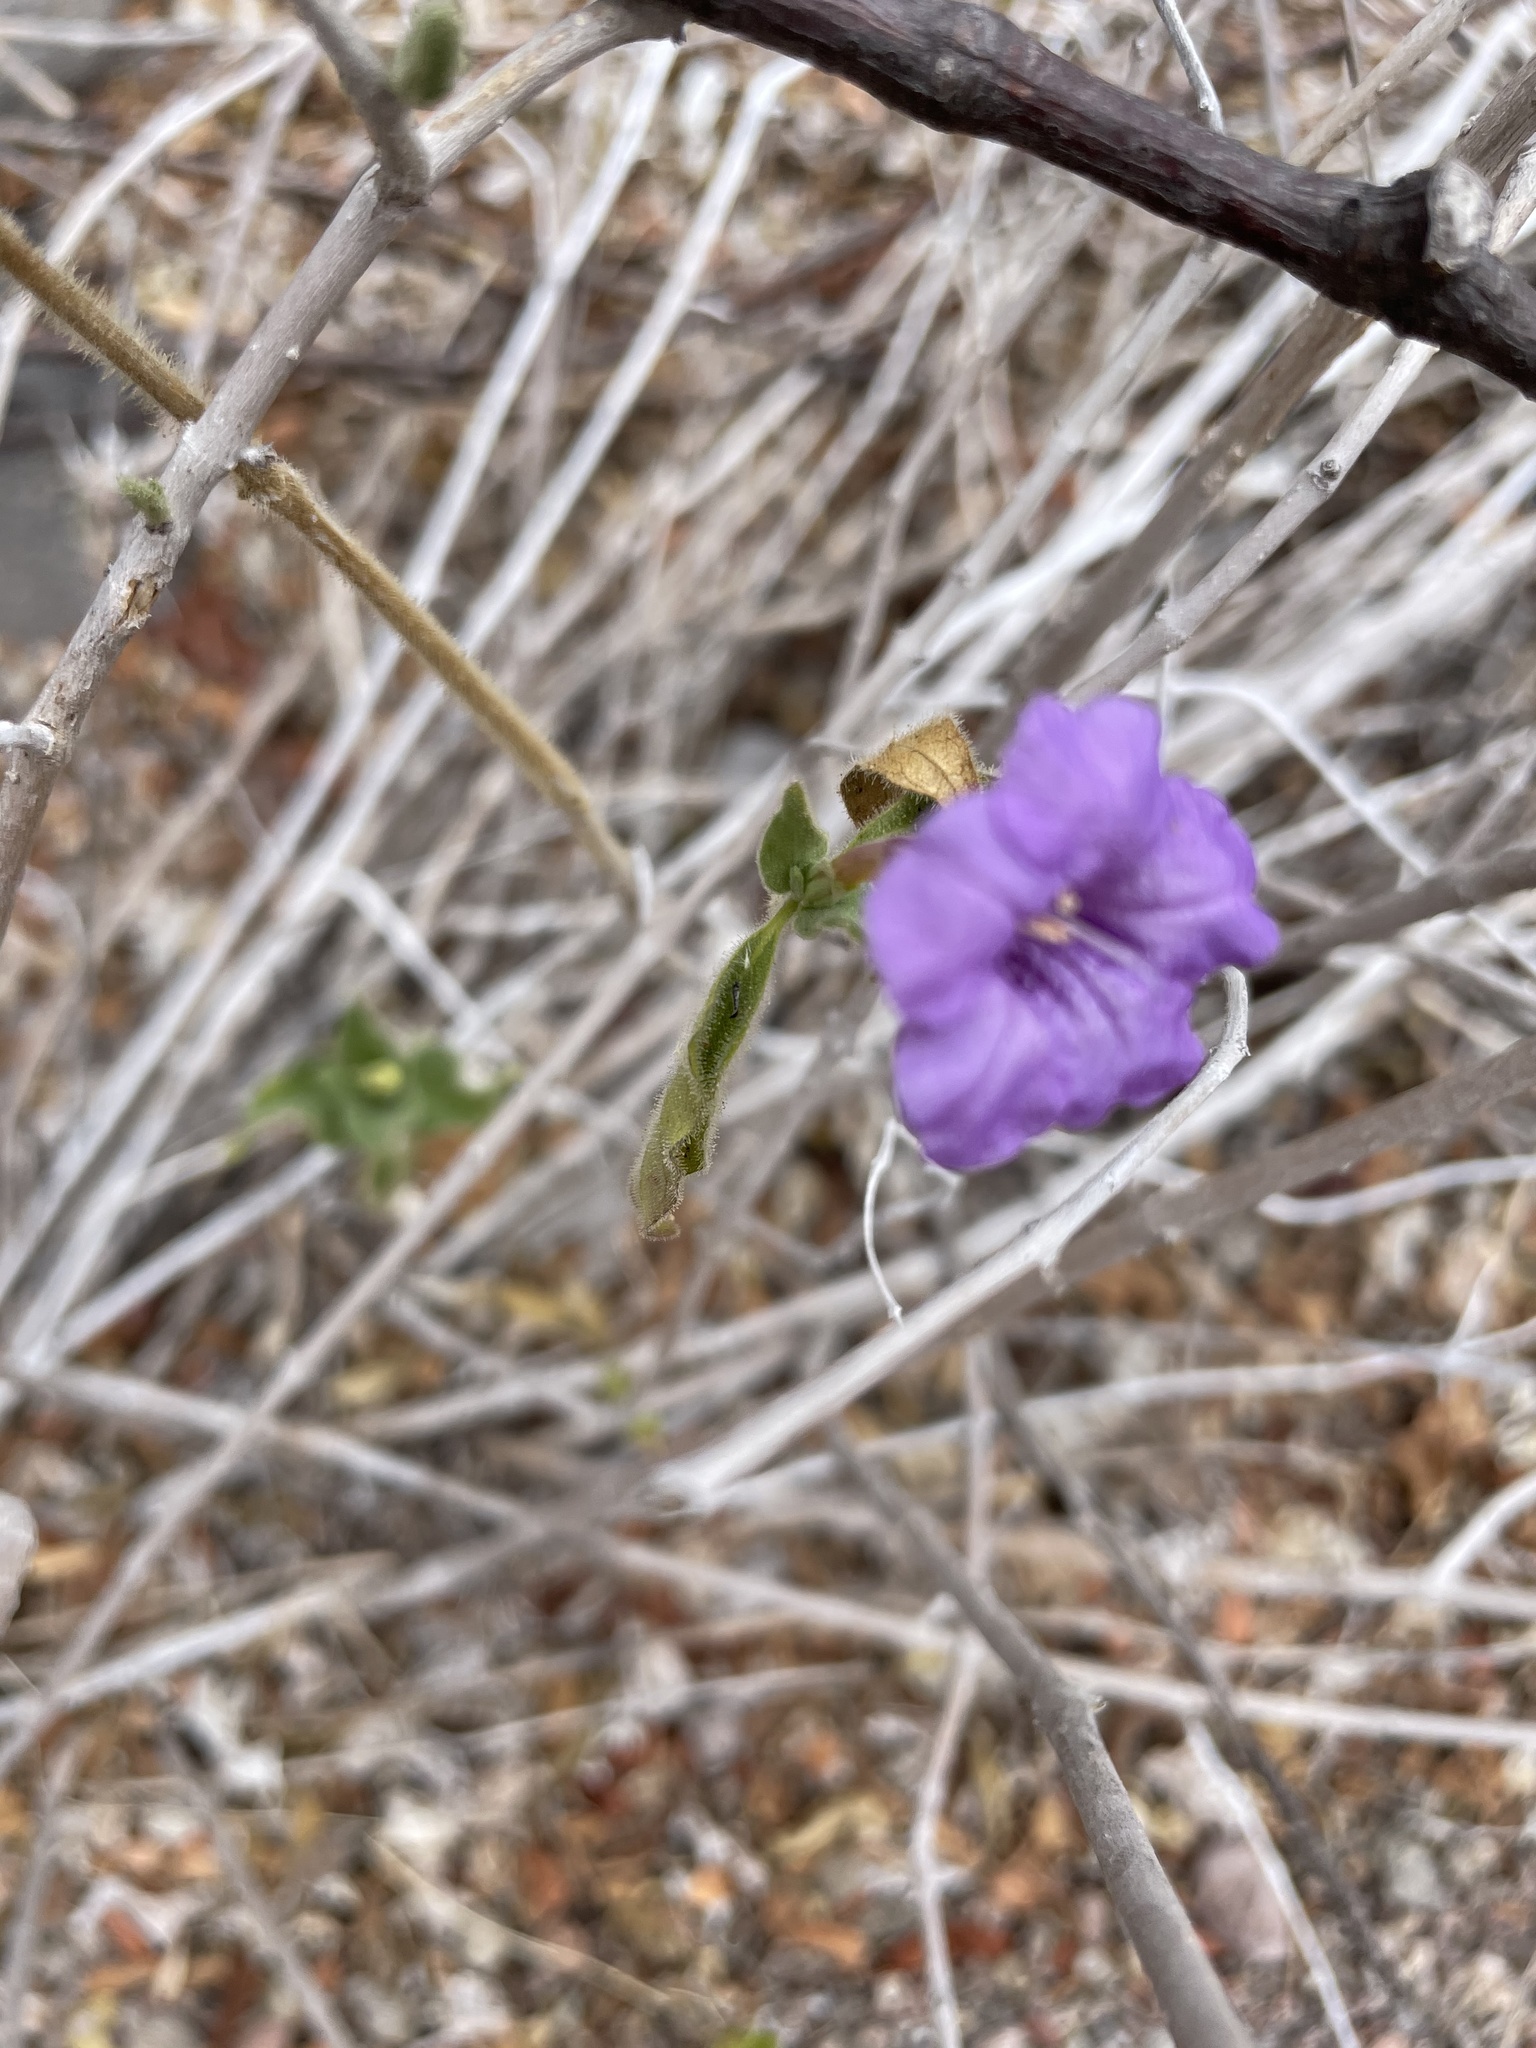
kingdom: Plantae
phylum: Tracheophyta
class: Magnoliopsida
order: Lamiales
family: Acanthaceae
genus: Ruellia
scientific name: Ruellia californica
